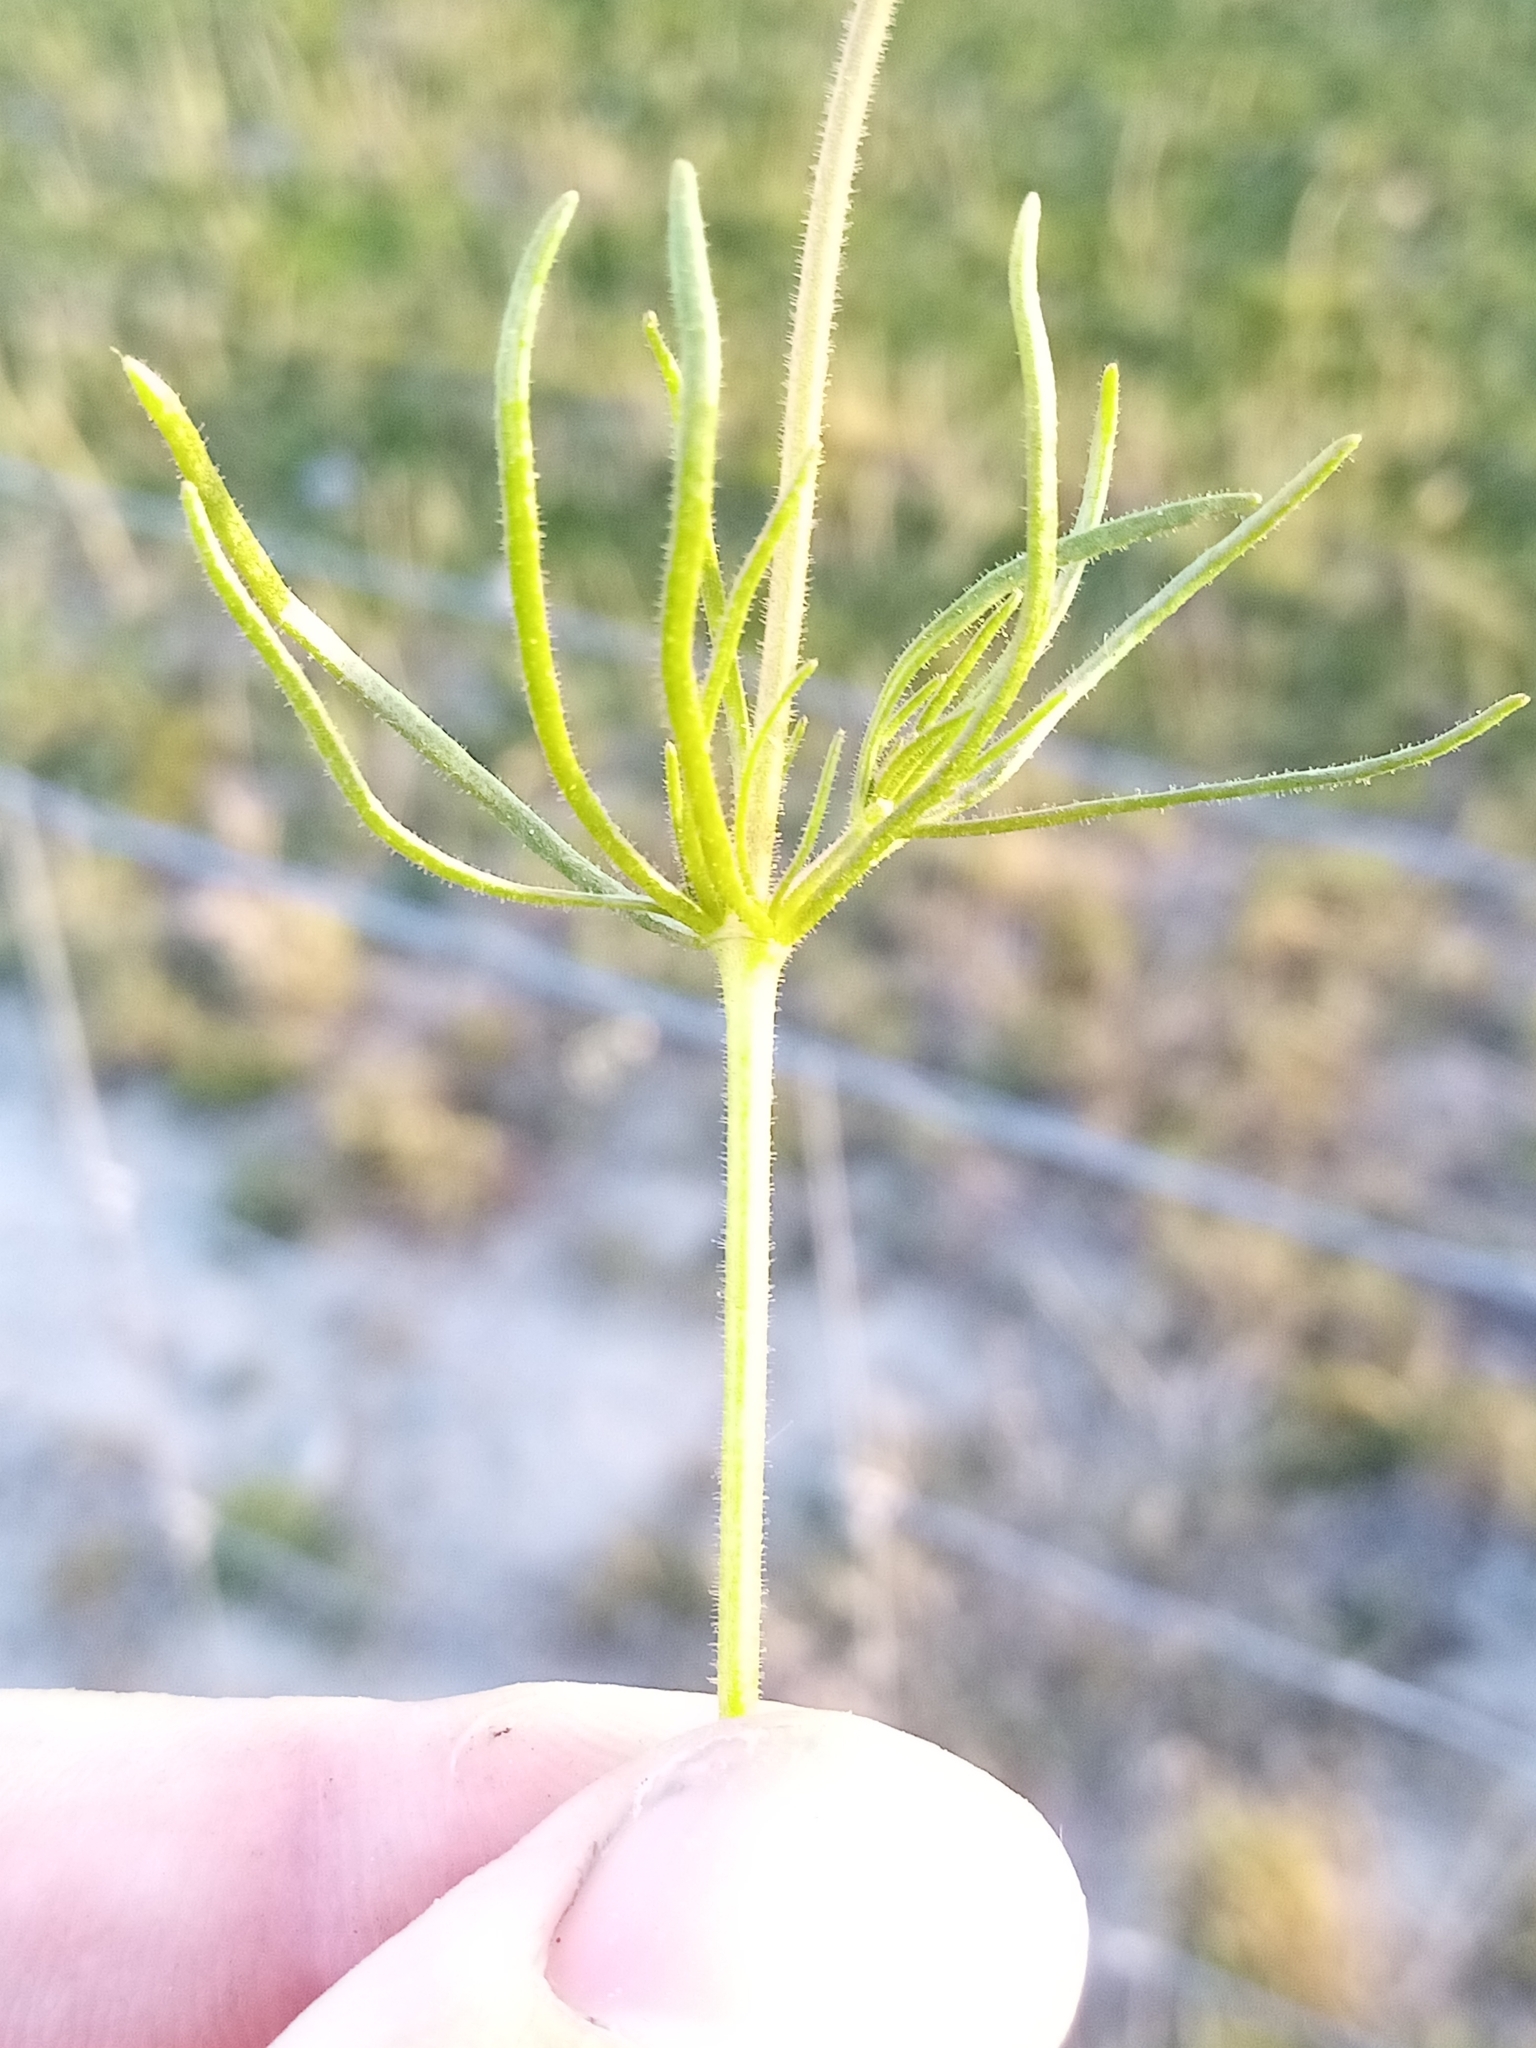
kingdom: Plantae
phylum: Tracheophyta
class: Magnoliopsida
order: Caryophyllales
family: Caryophyllaceae
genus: Spergula
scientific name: Spergula arvensis
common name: Corn spurrey
